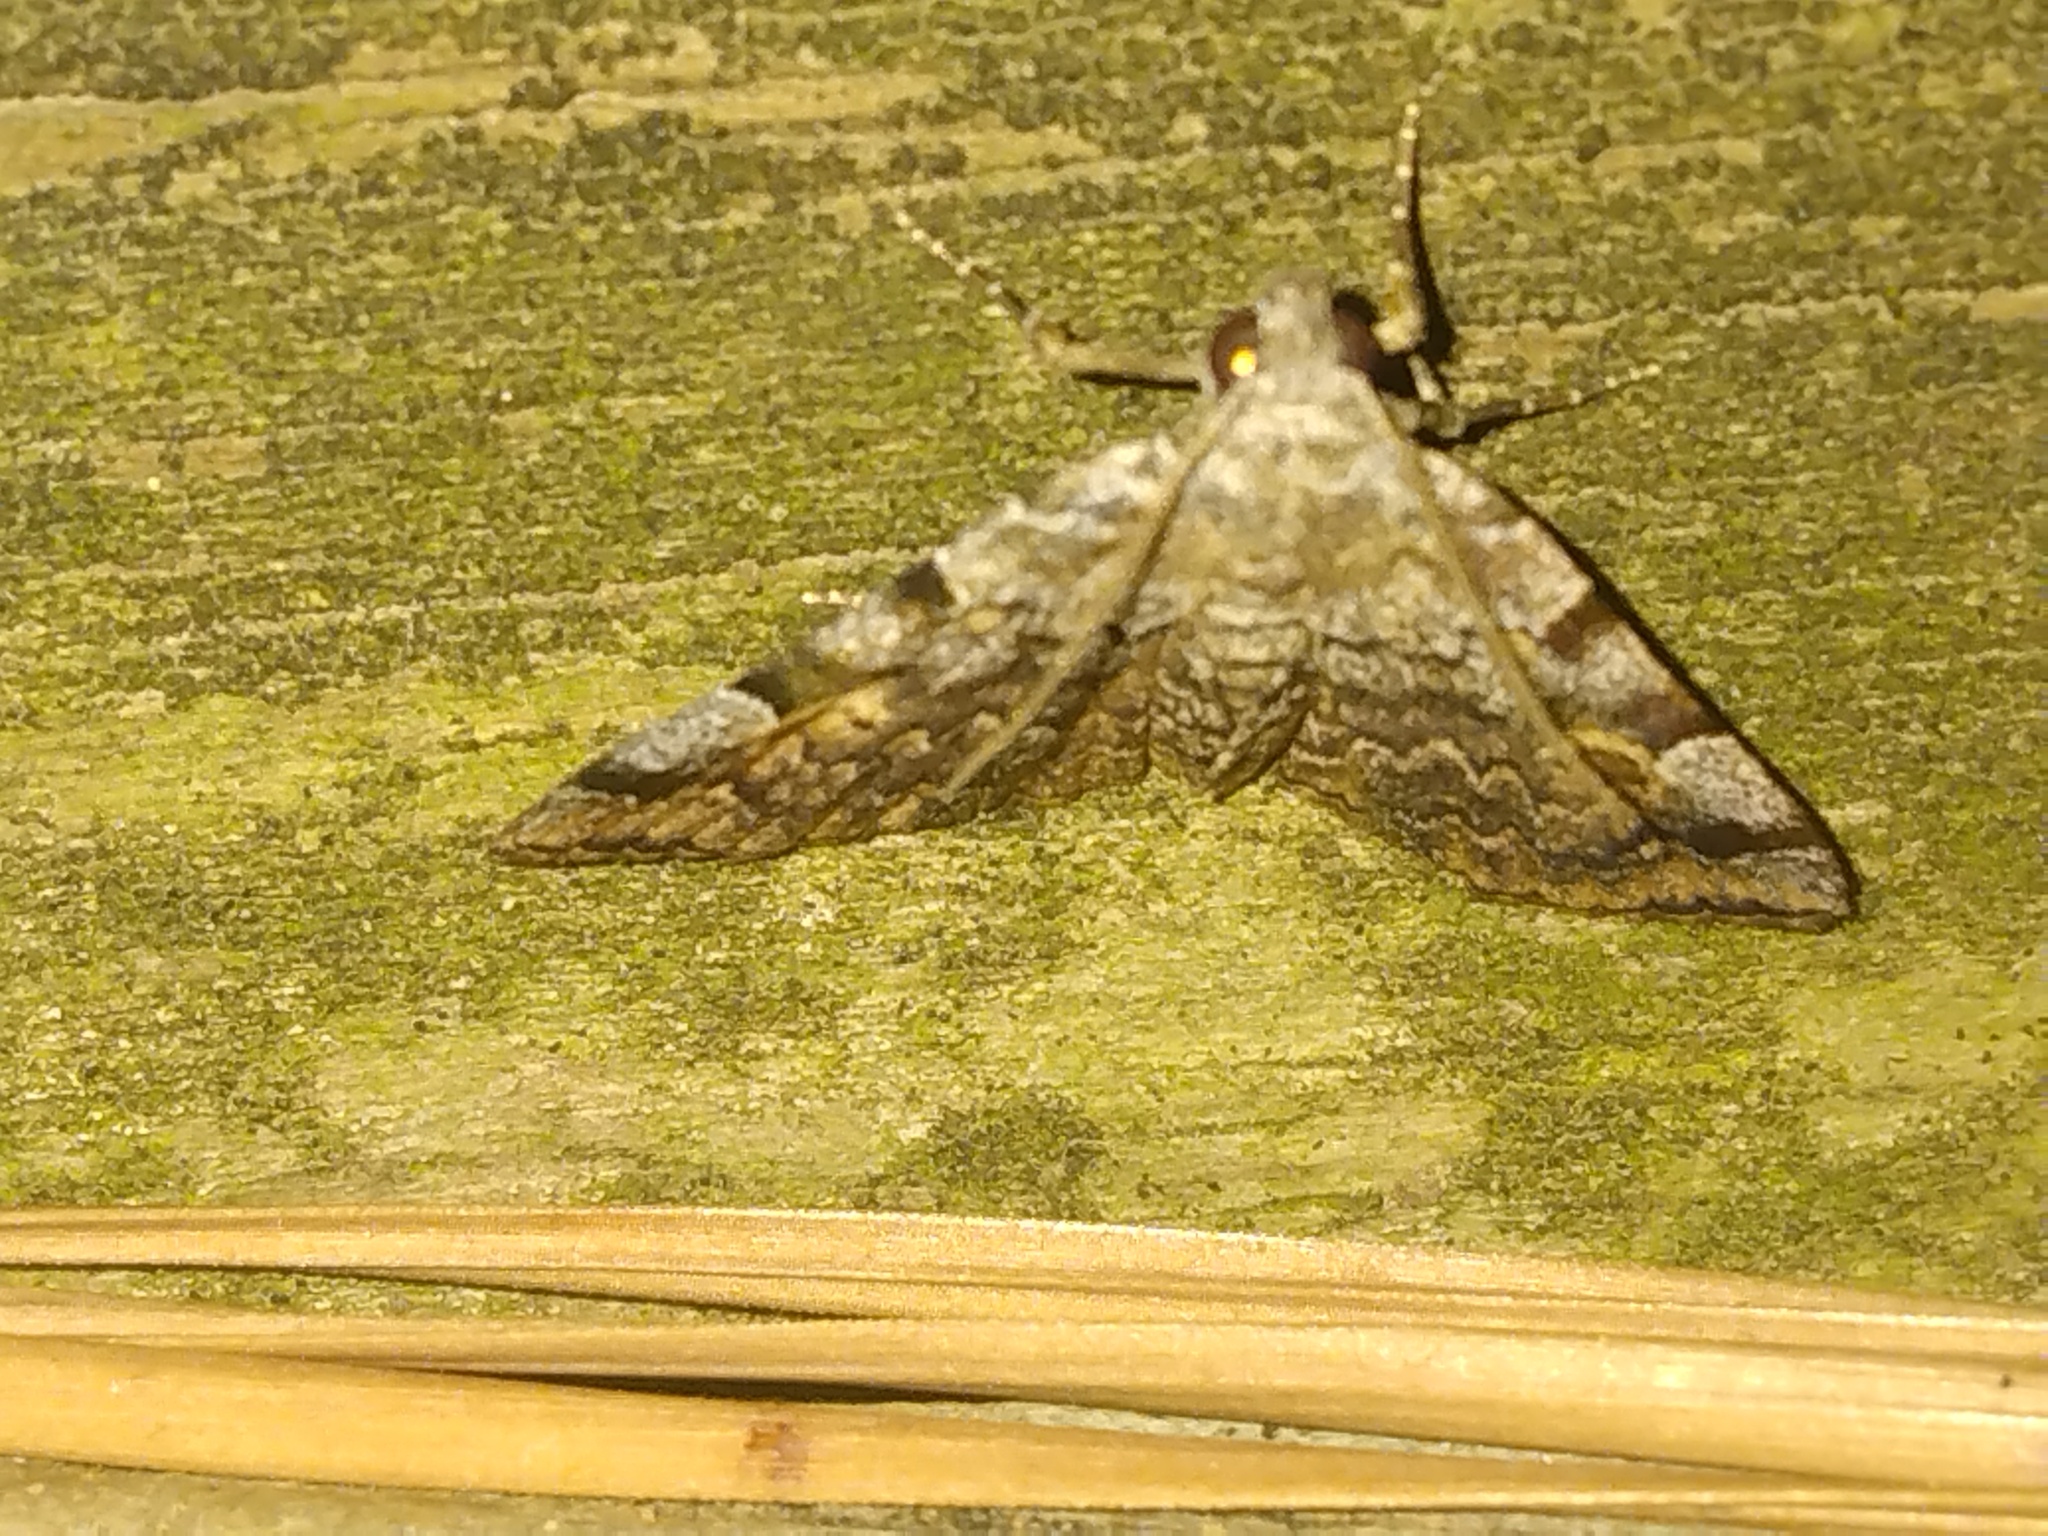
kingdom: Animalia
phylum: Arthropoda
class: Insecta
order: Lepidoptera
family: Erebidae
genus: Idia
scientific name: Idia americalis
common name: American idia moth
